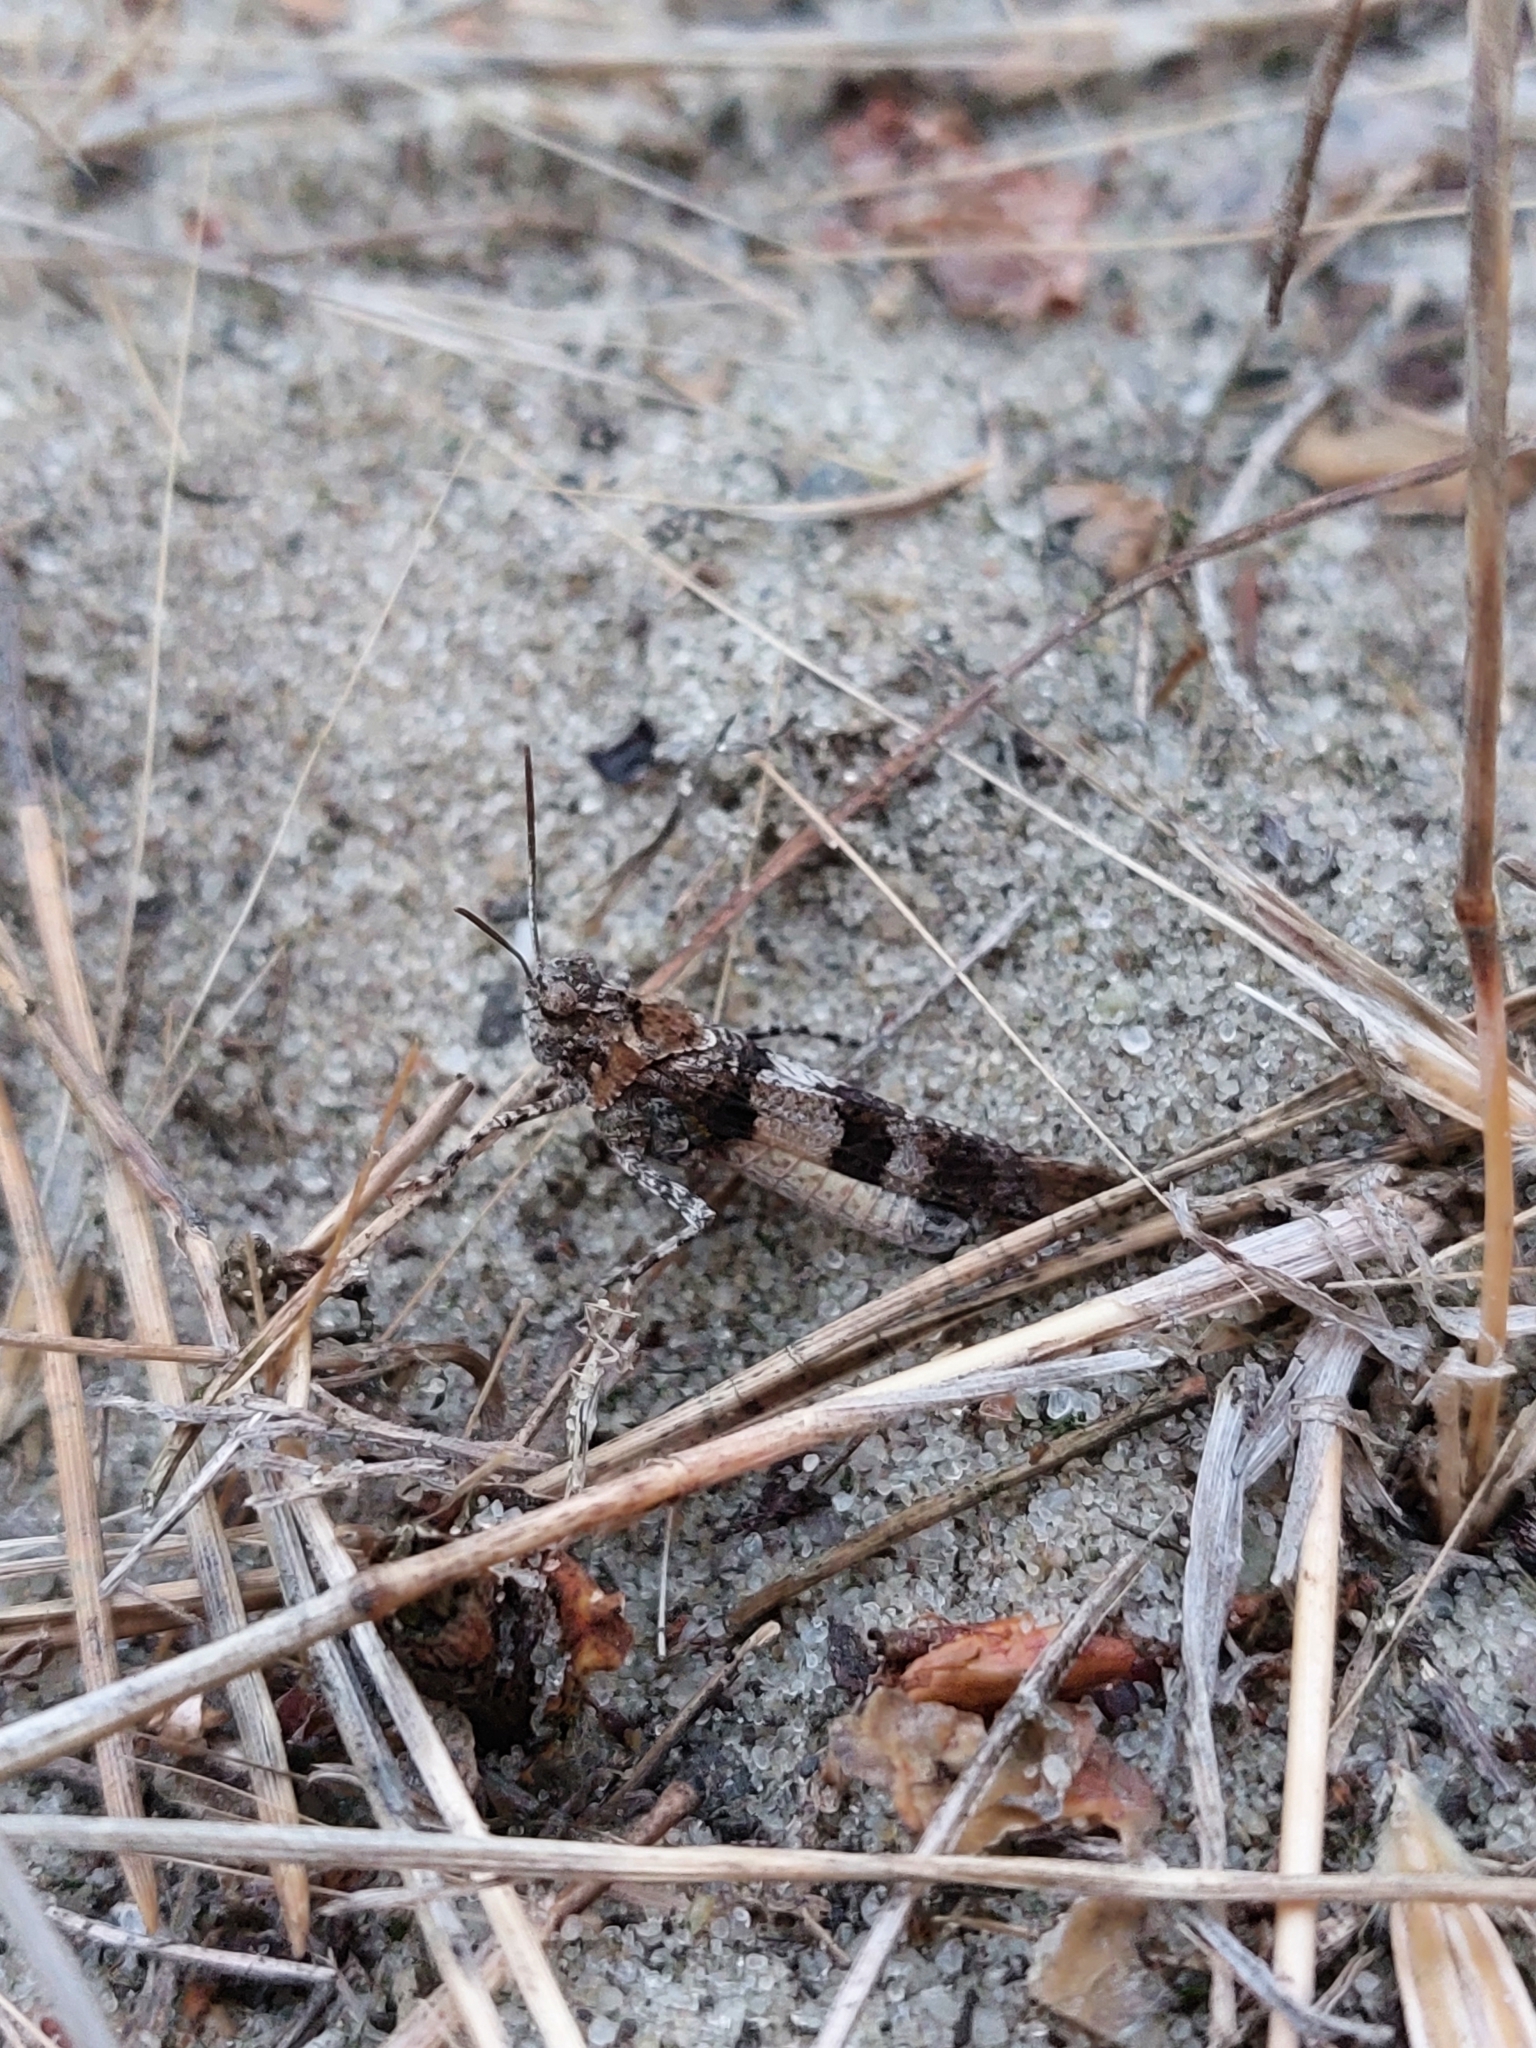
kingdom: Animalia
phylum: Arthropoda
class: Insecta
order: Orthoptera
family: Acrididae
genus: Oedipoda
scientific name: Oedipoda caerulescens
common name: Blue-winged grasshopper
